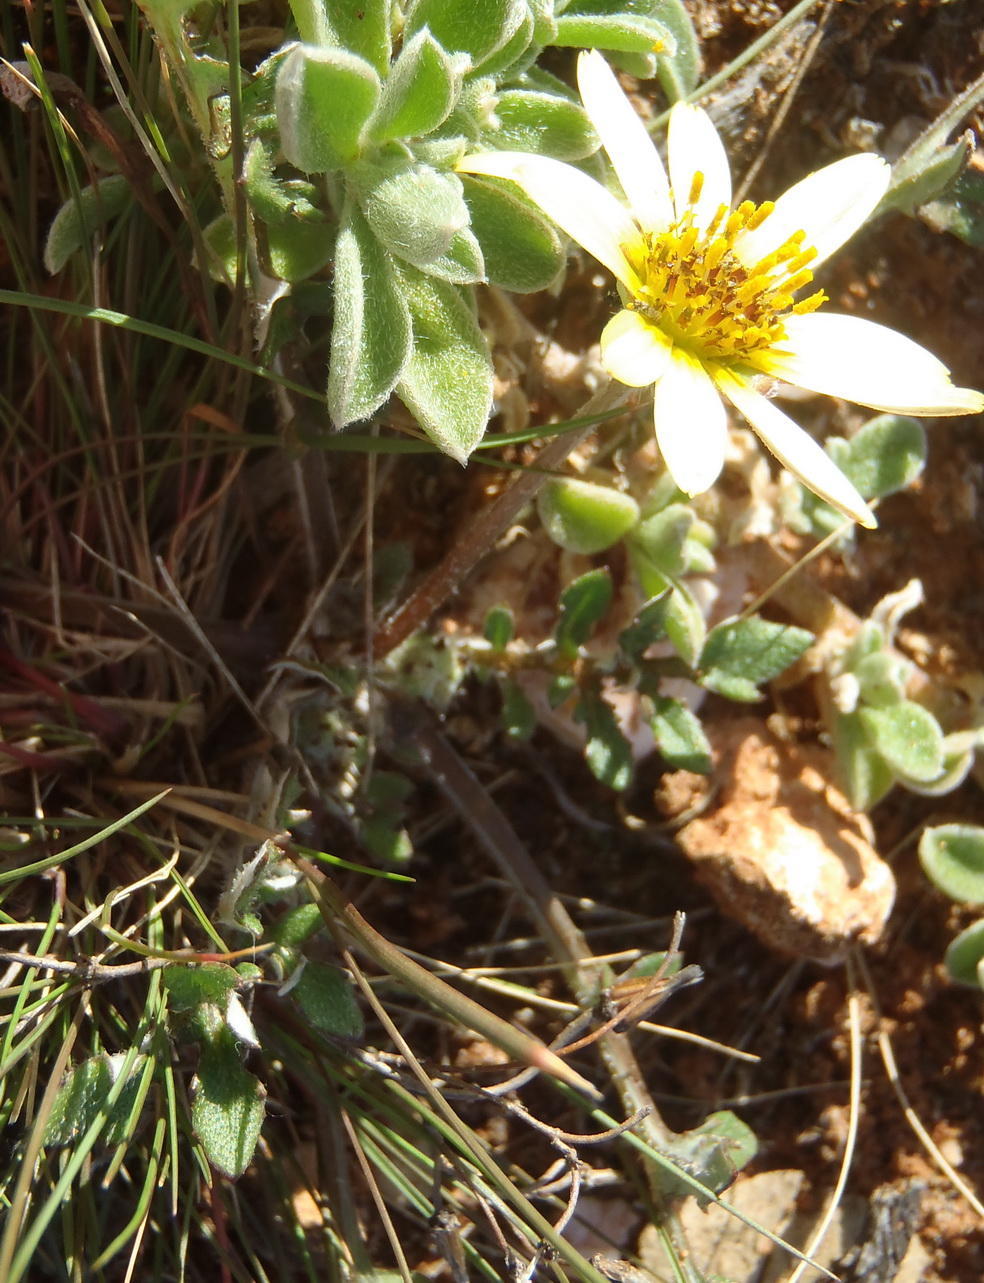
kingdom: Plantae
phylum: Tracheophyta
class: Magnoliopsida
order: Asterales
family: Asteraceae
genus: Arctotis
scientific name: Arctotis dregei
